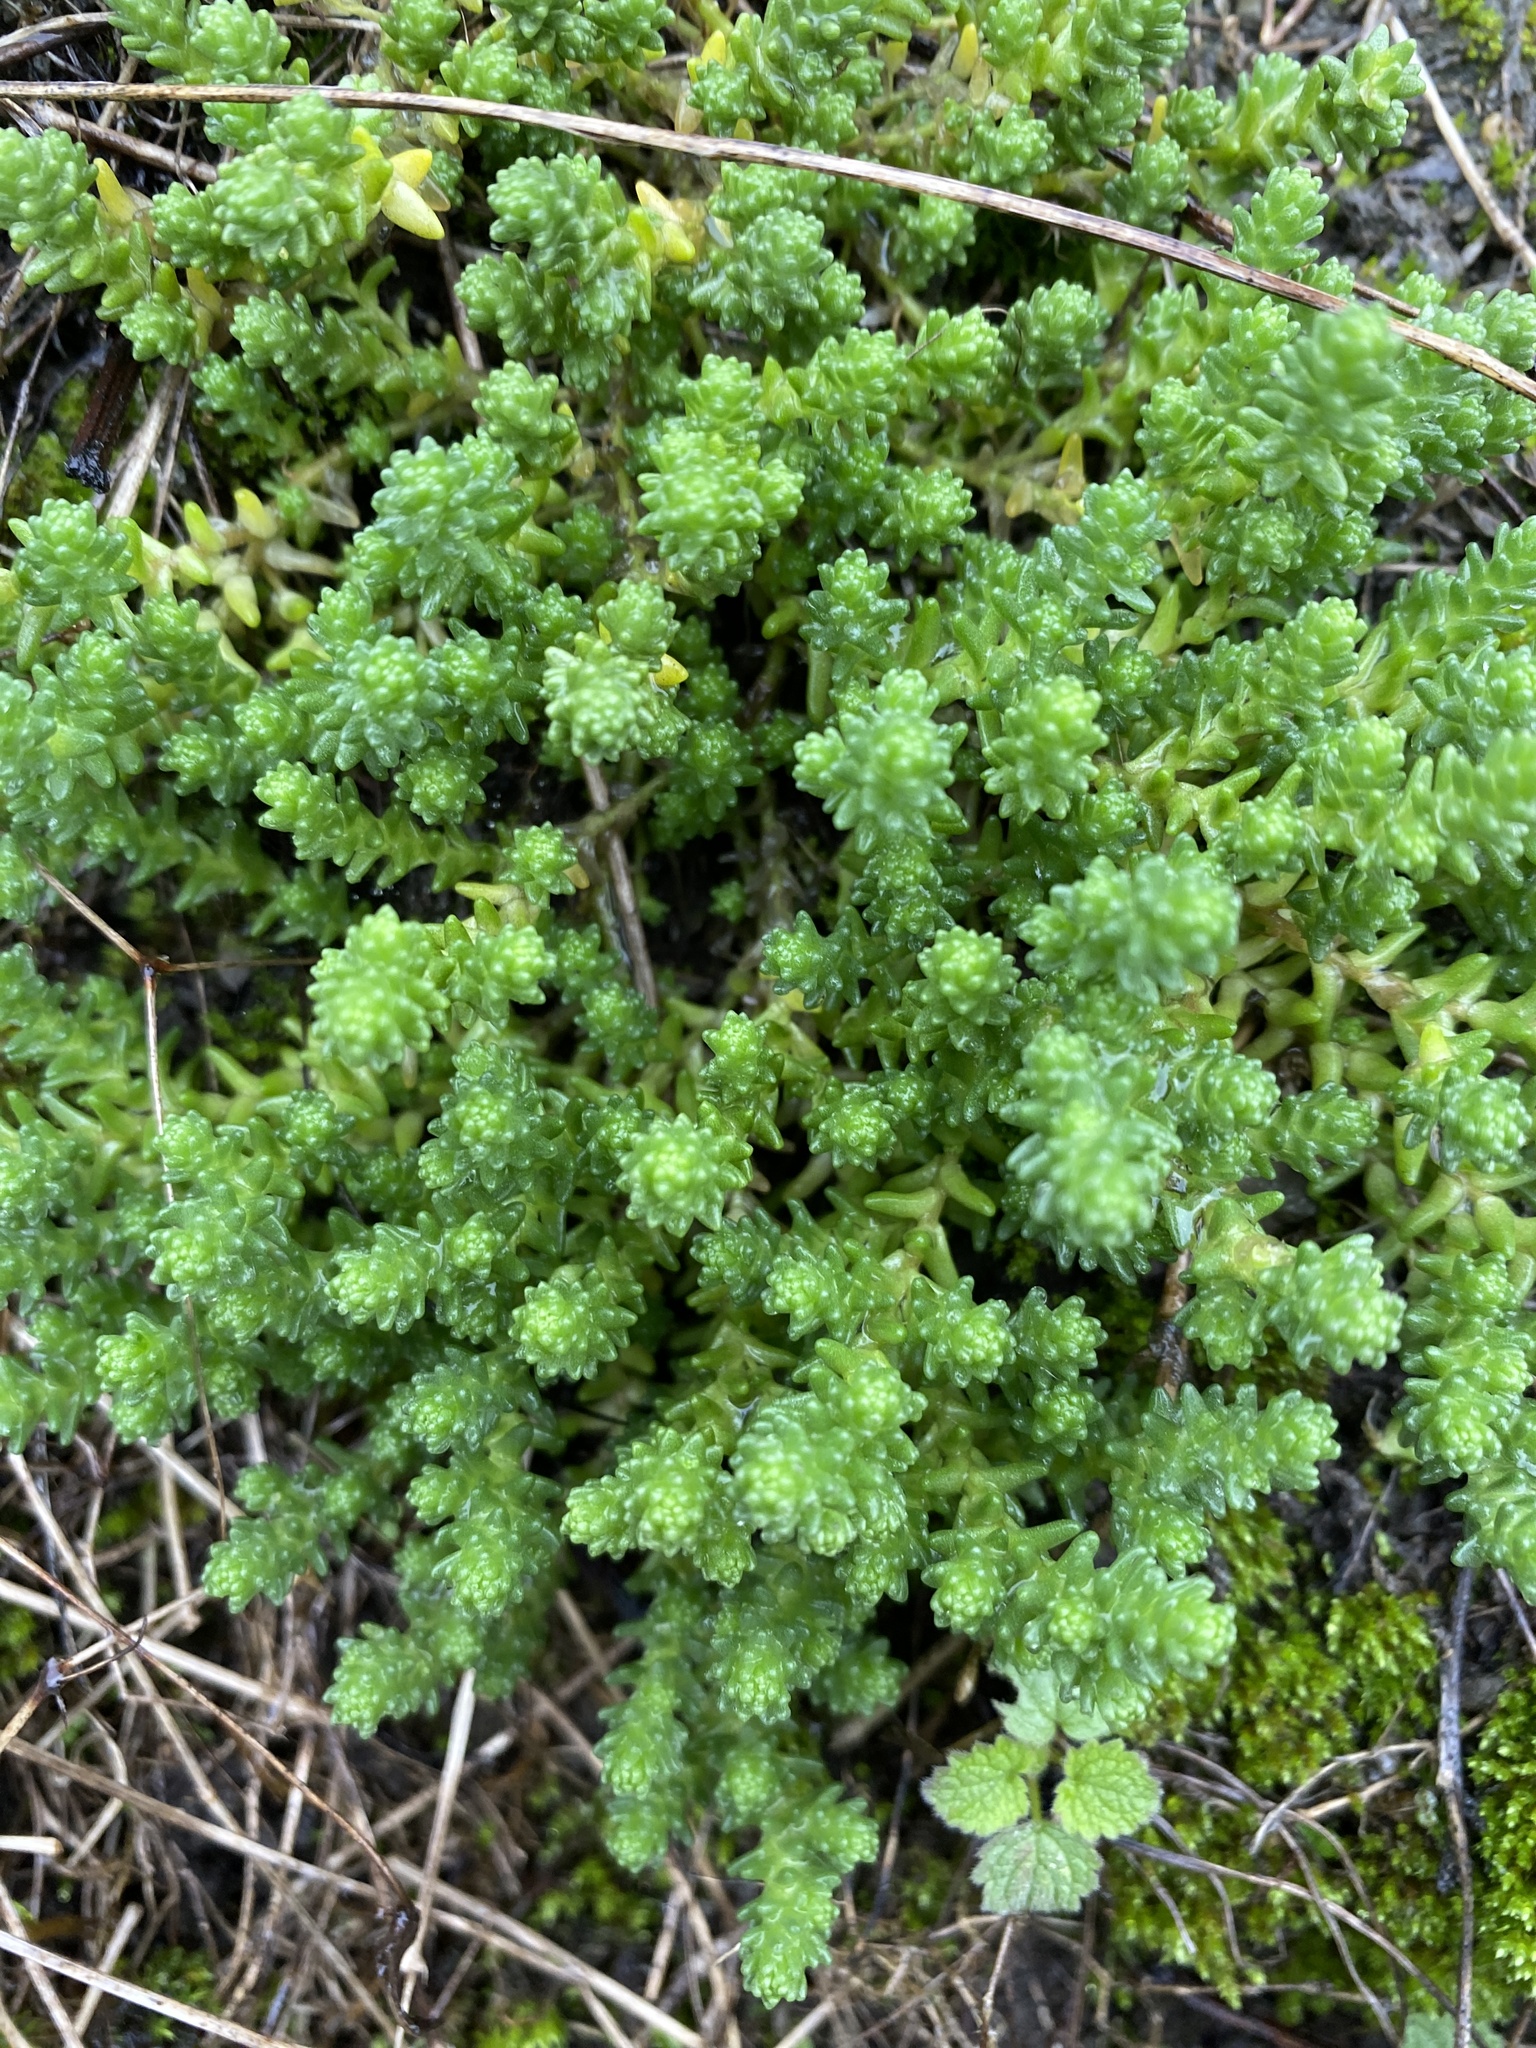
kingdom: Plantae
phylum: Tracheophyta
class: Magnoliopsida
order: Saxifragales
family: Crassulaceae
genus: Sedum
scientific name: Sedum acre
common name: Biting stonecrop
